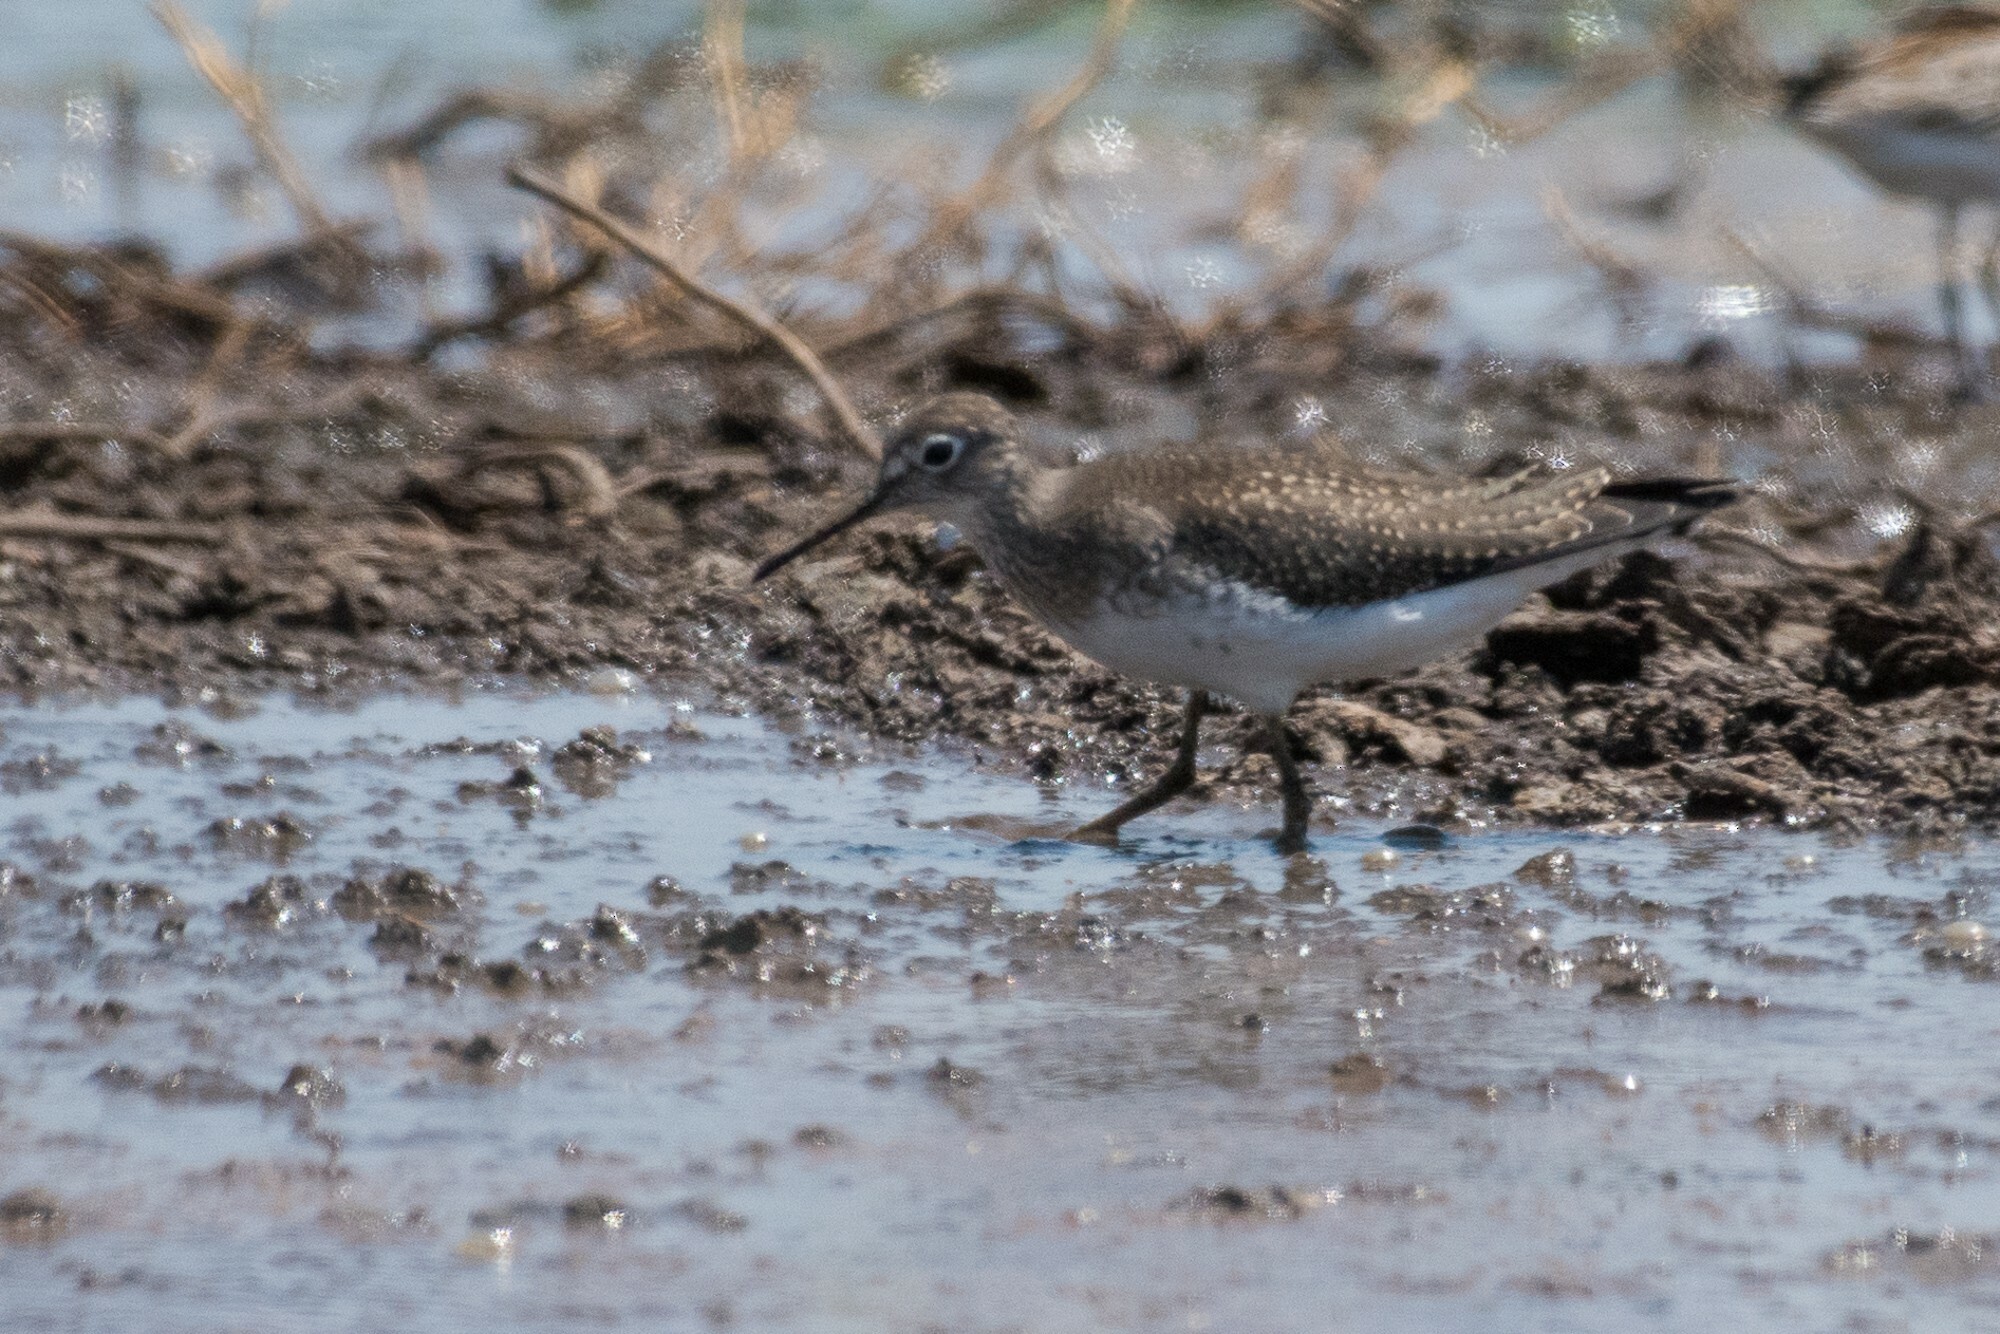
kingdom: Animalia
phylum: Chordata
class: Aves
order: Charadriiformes
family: Scolopacidae
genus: Tringa
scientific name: Tringa solitaria
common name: Solitary sandpiper
